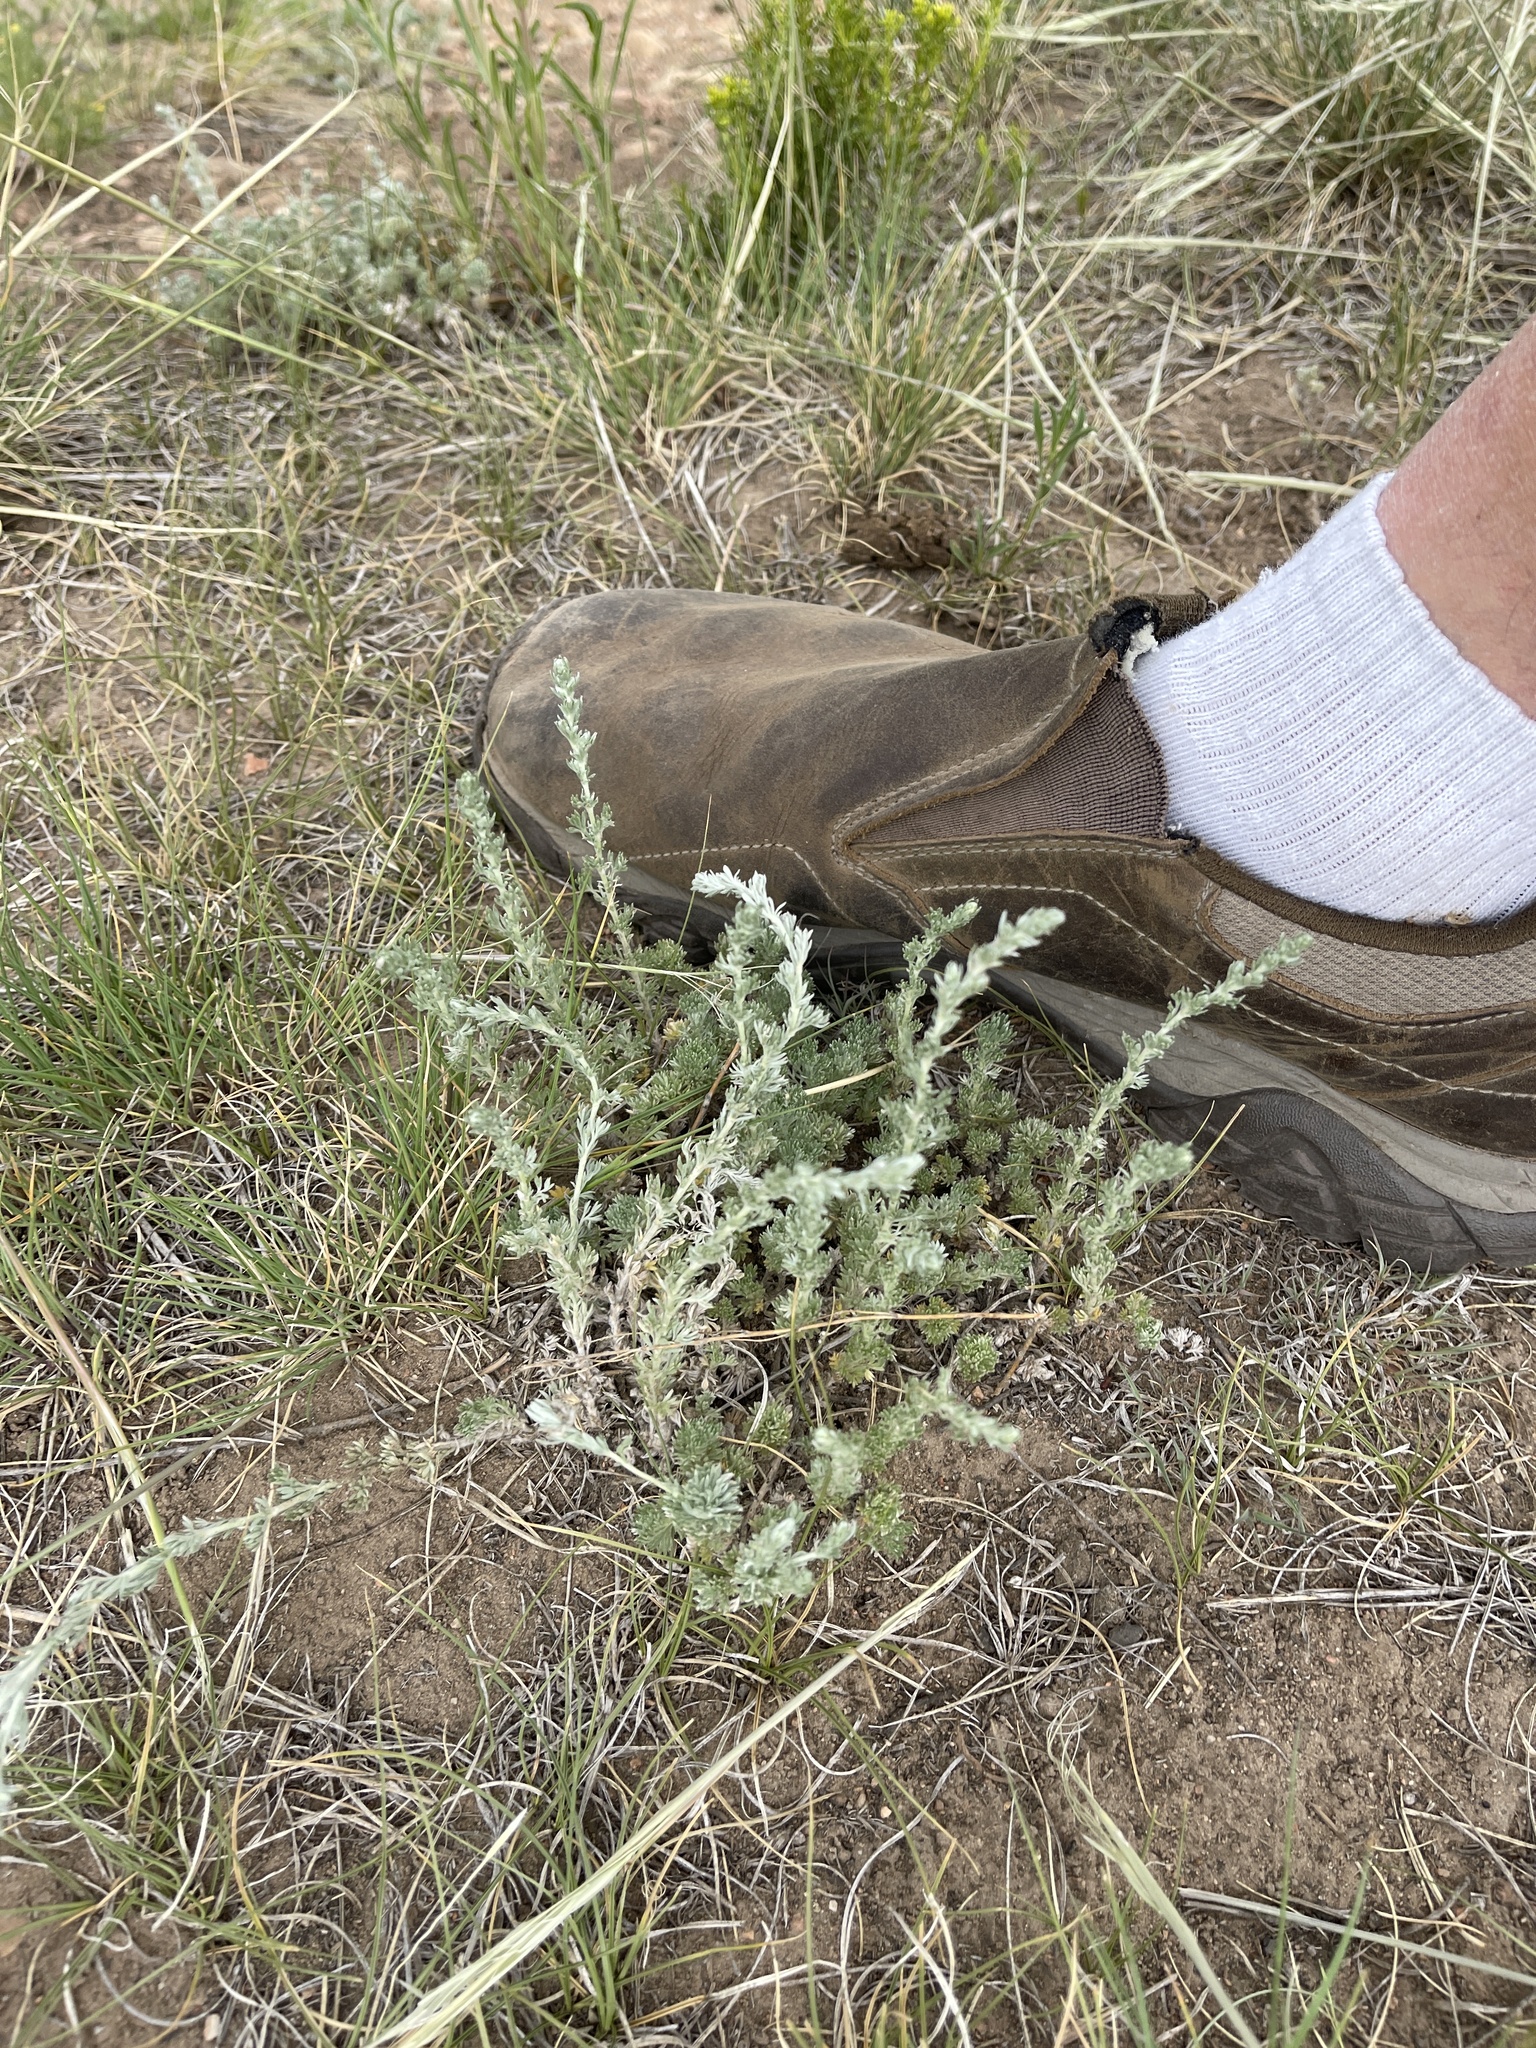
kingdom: Plantae
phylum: Tracheophyta
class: Magnoliopsida
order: Asterales
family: Asteraceae
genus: Artemisia
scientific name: Artemisia frigida
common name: Prairie sagewort
